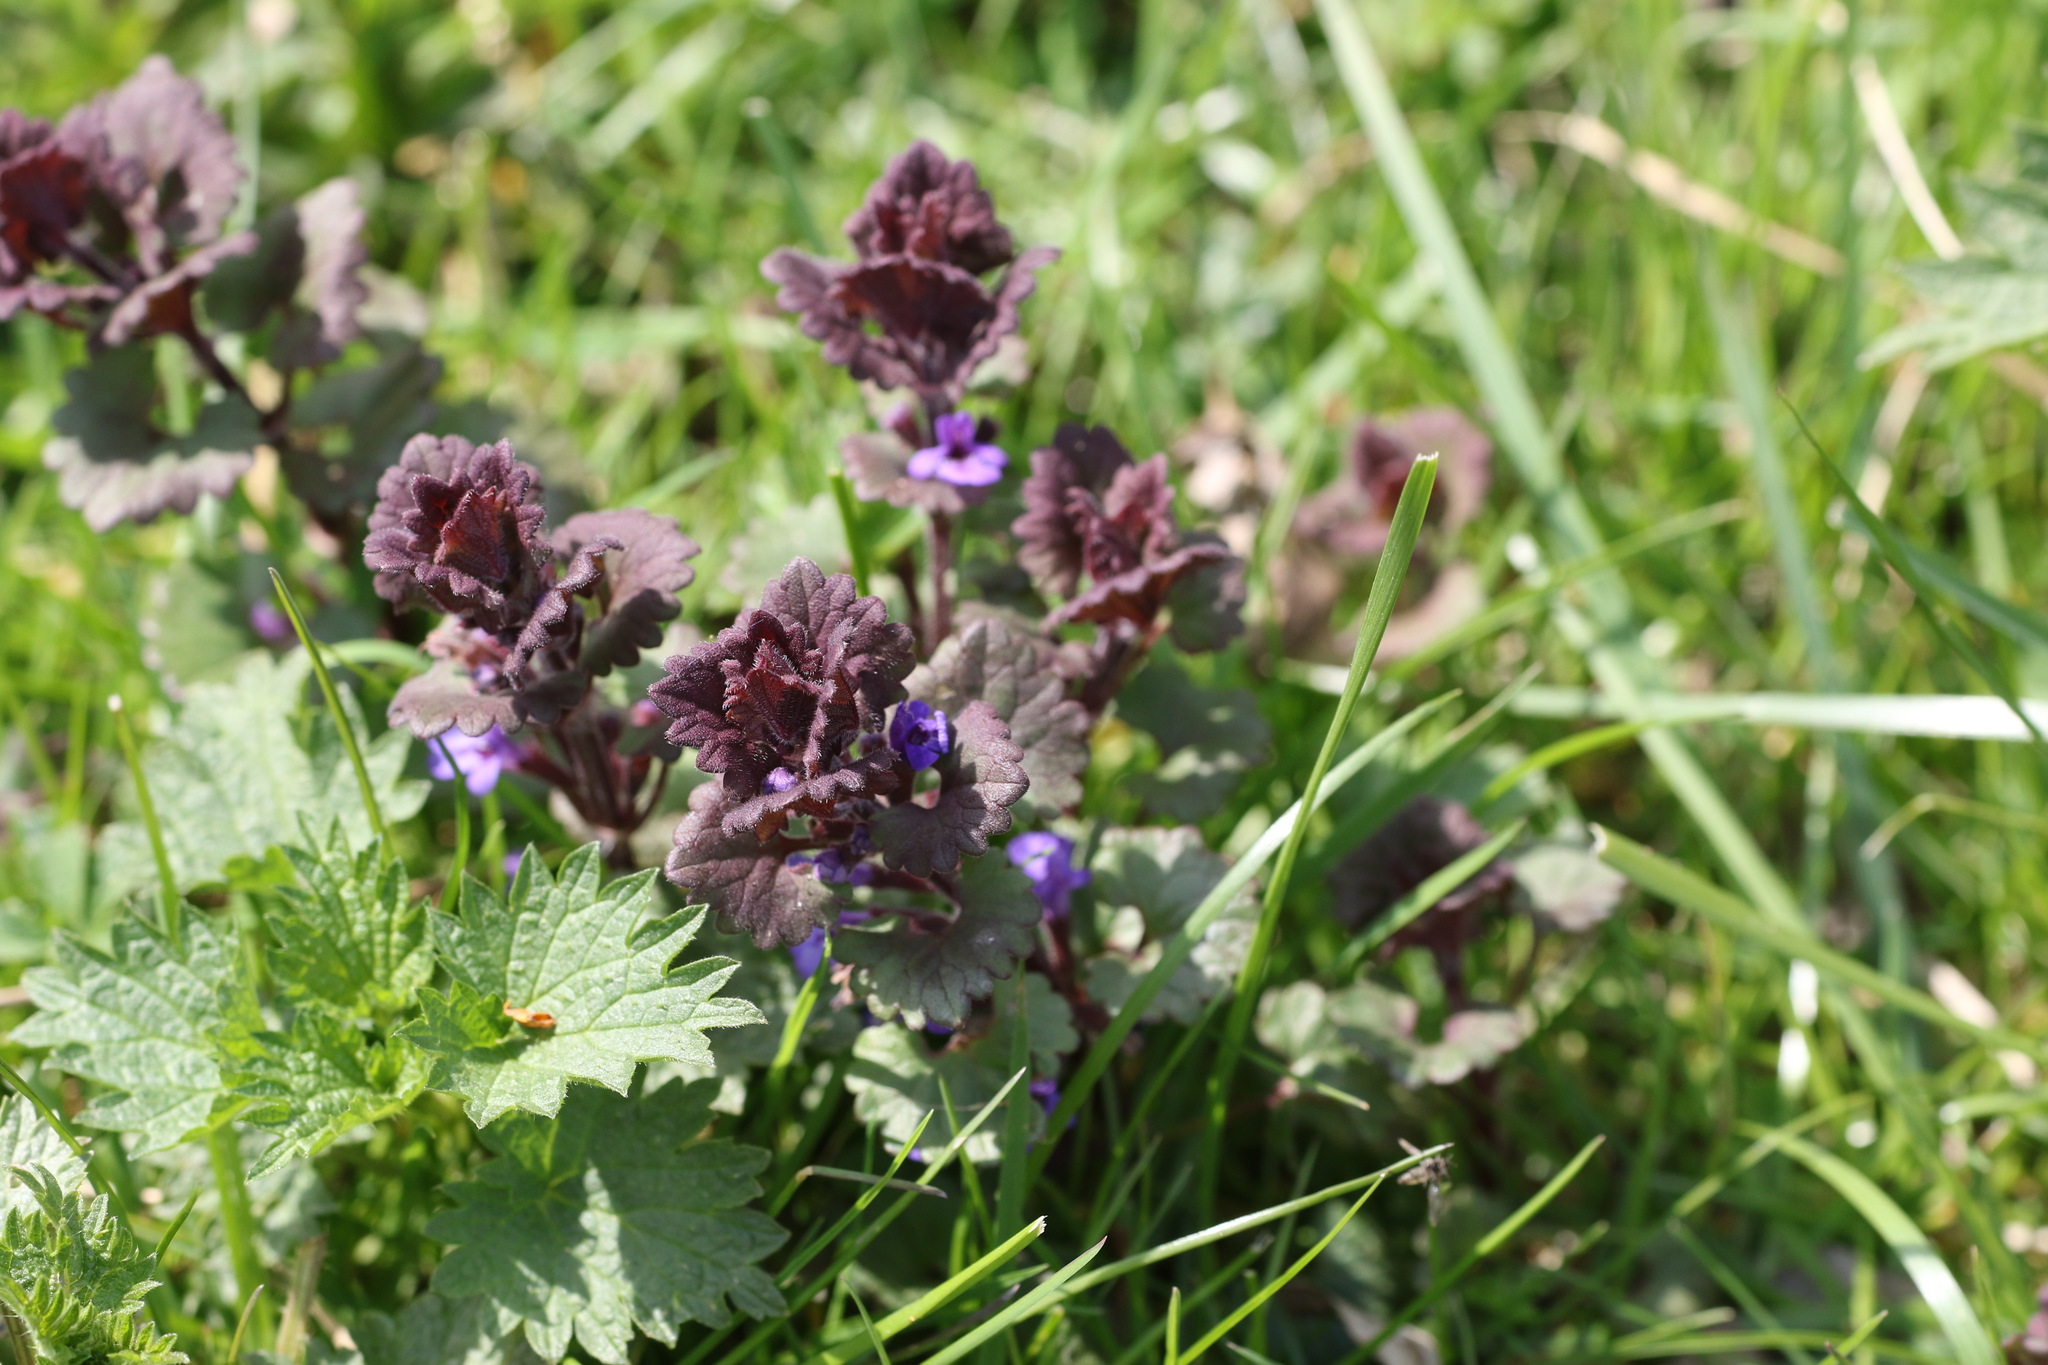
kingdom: Plantae
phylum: Tracheophyta
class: Magnoliopsida
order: Lamiales
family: Lamiaceae
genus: Glechoma
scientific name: Glechoma hederacea
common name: Ground ivy
